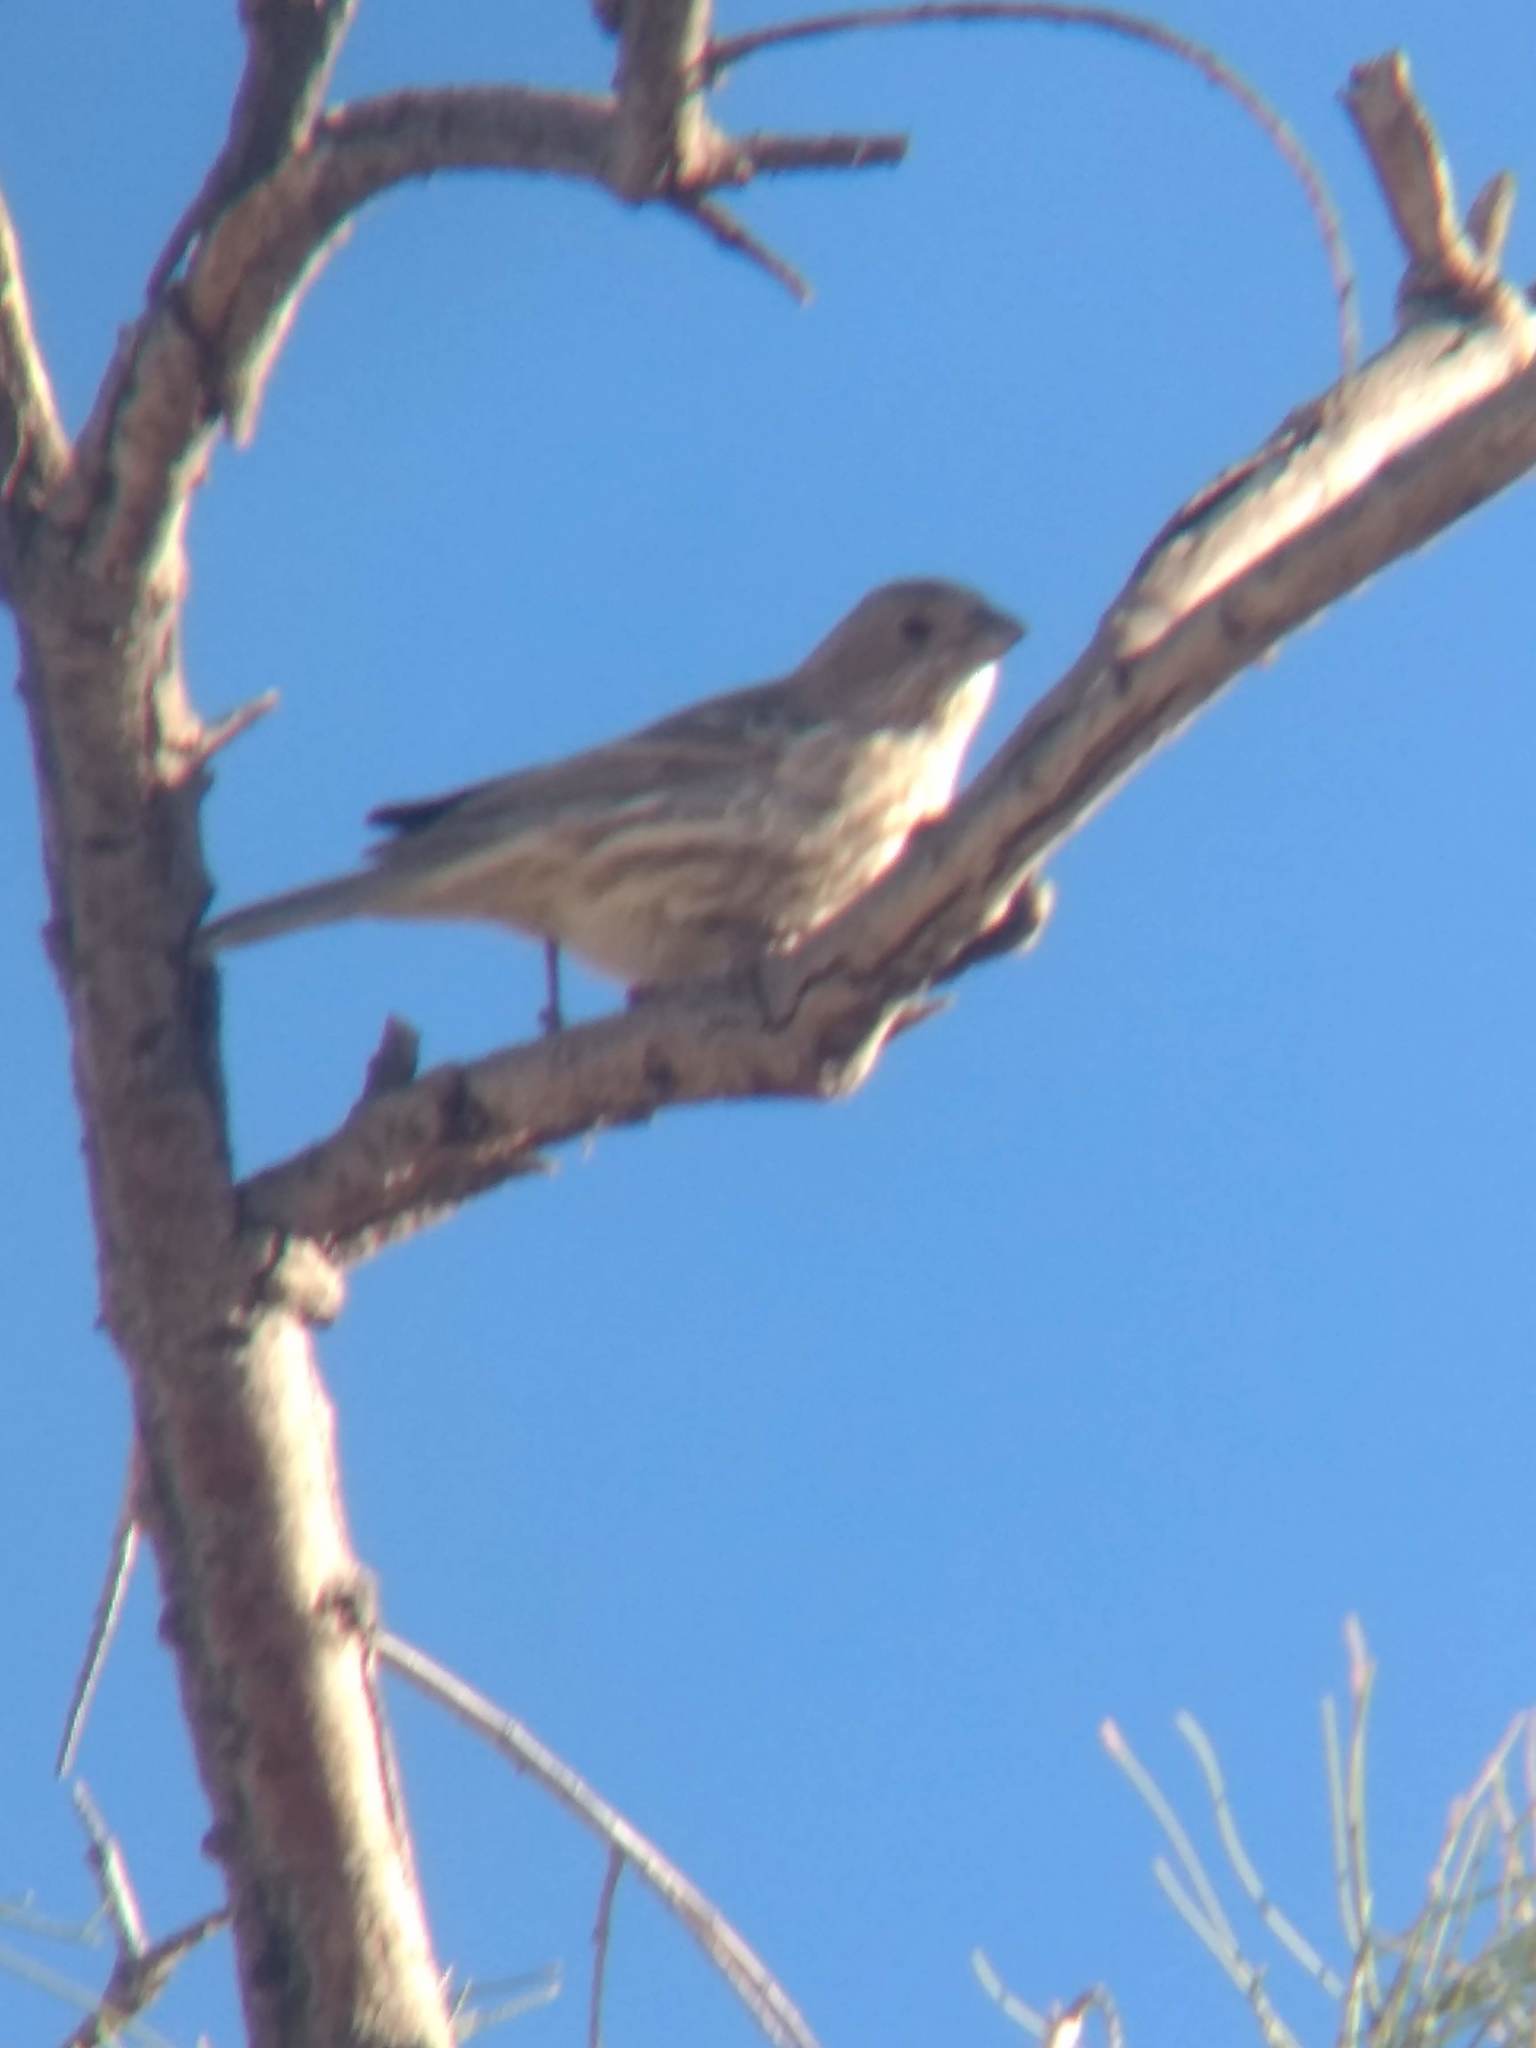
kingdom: Animalia
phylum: Chordata
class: Aves
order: Passeriformes
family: Fringillidae
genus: Haemorhous
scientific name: Haemorhous mexicanus
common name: House finch
